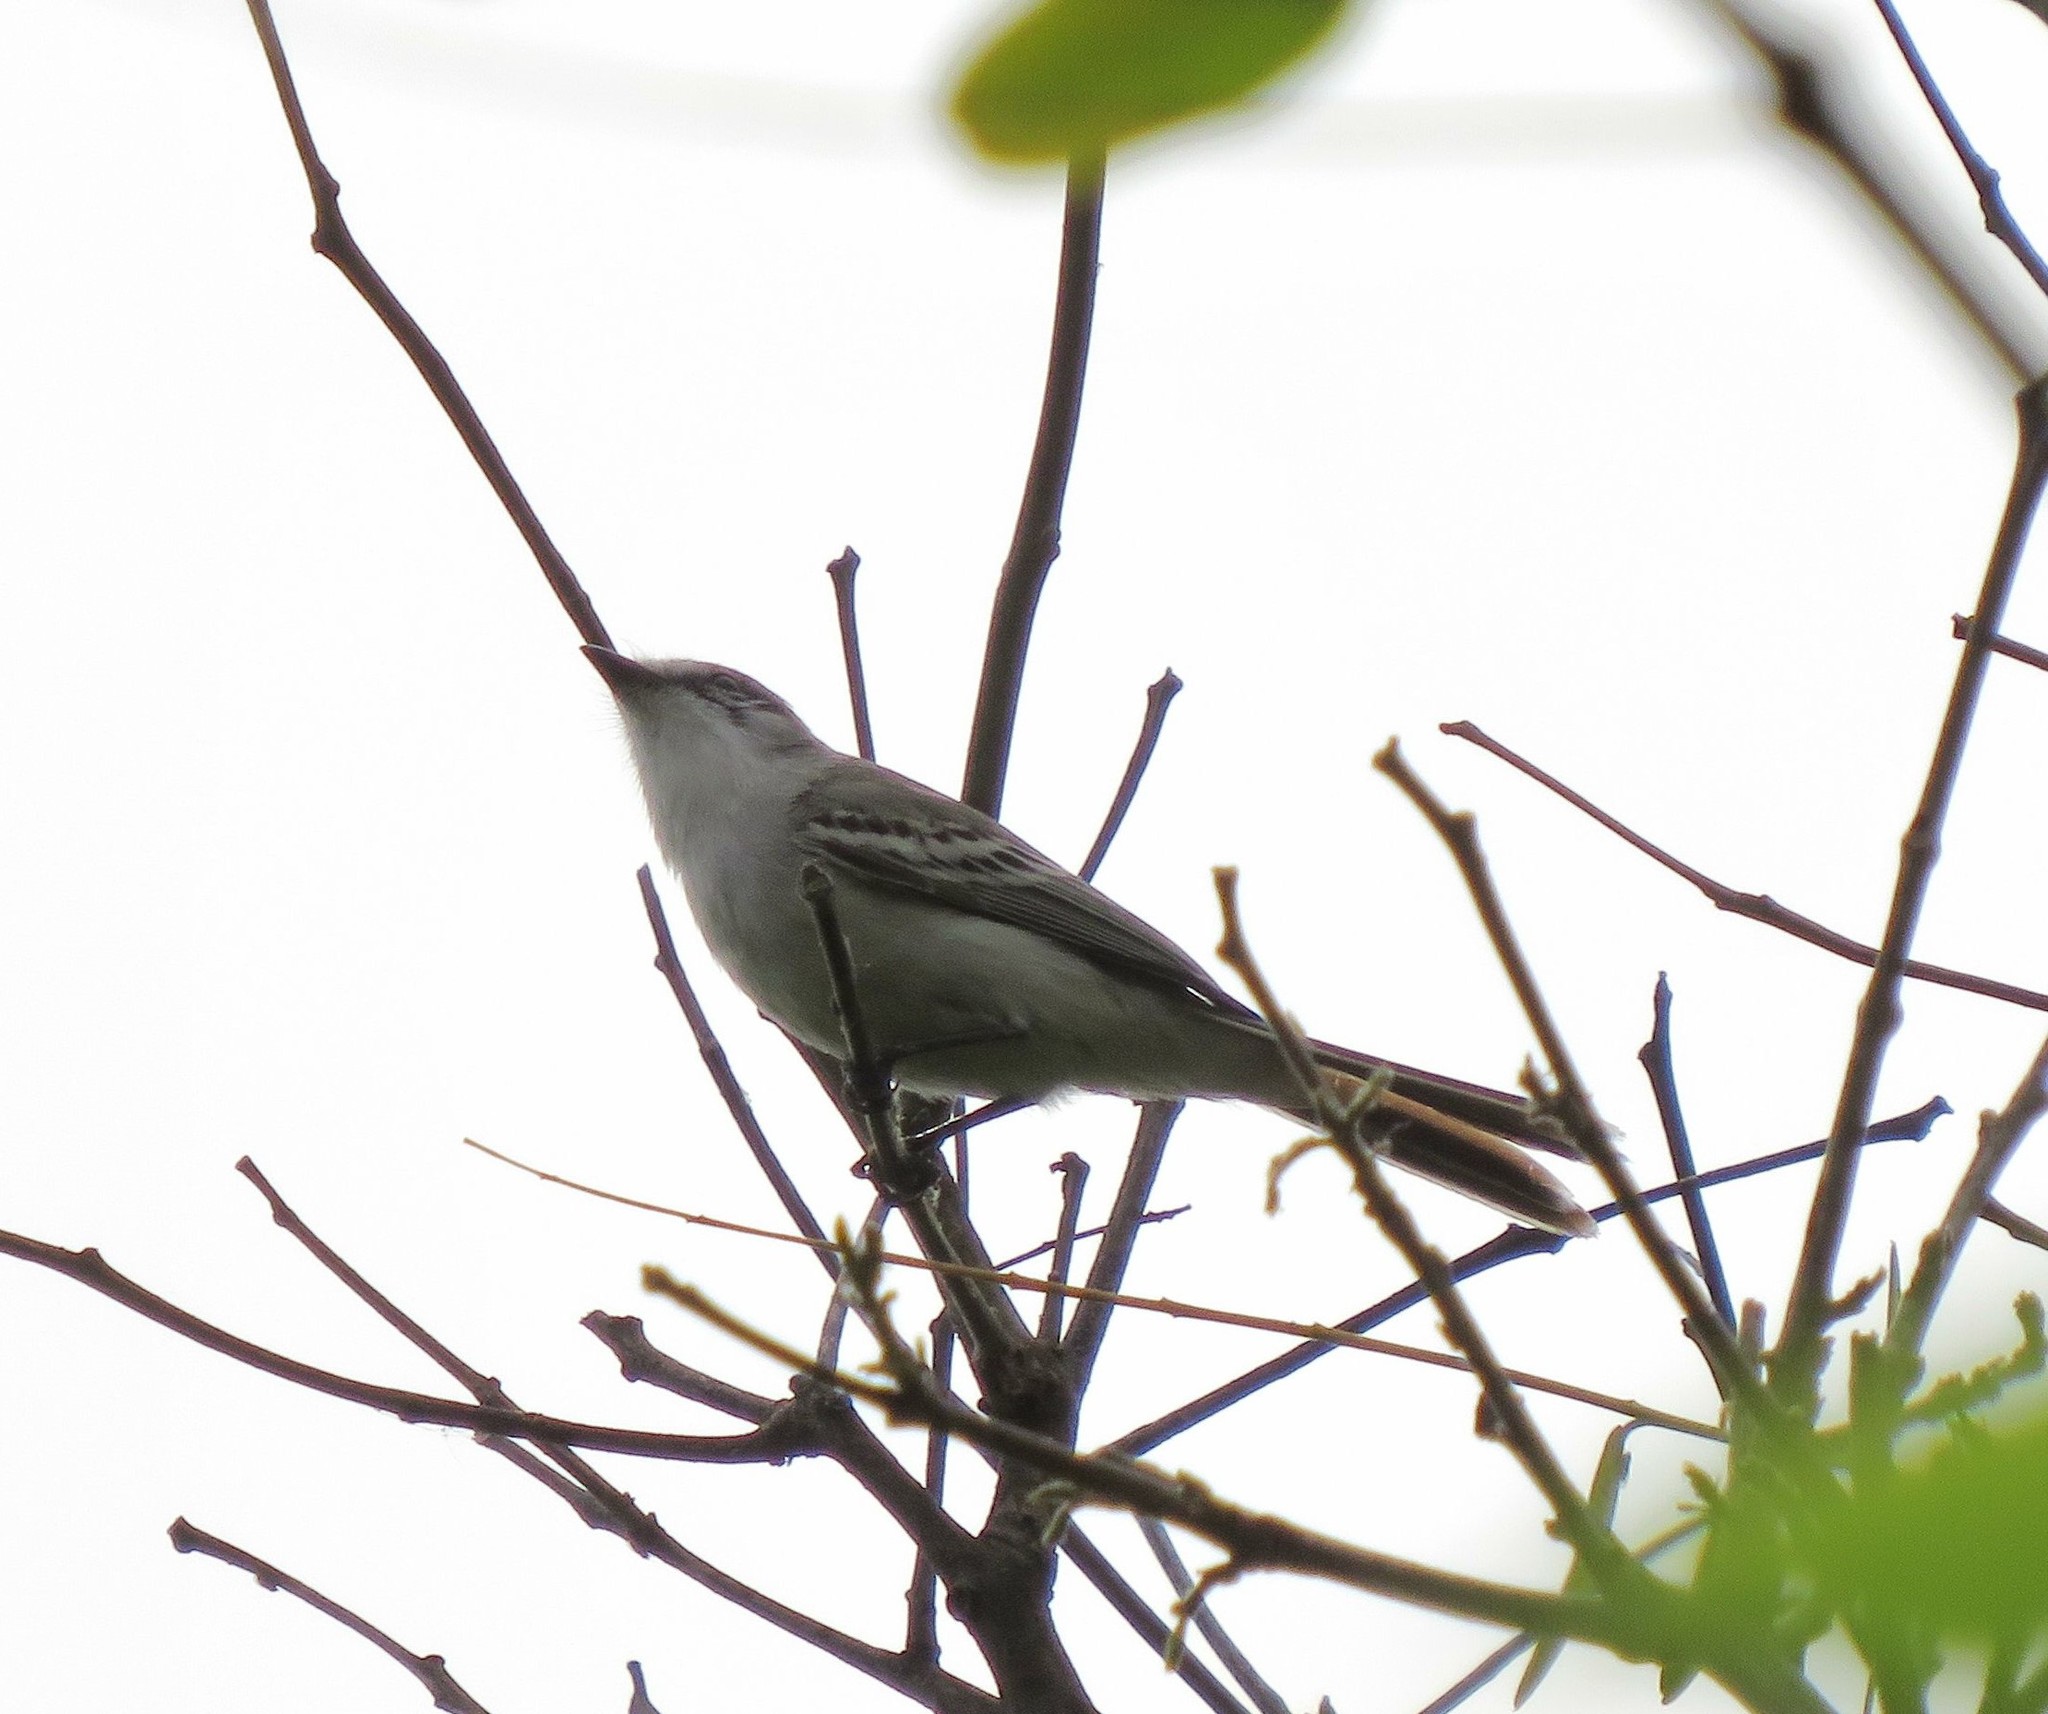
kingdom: Animalia
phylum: Chordata
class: Aves
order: Passeriformes
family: Tyrannidae
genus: Suiriri
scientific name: Suiriri suiriri
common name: Suiriri flycatcher
